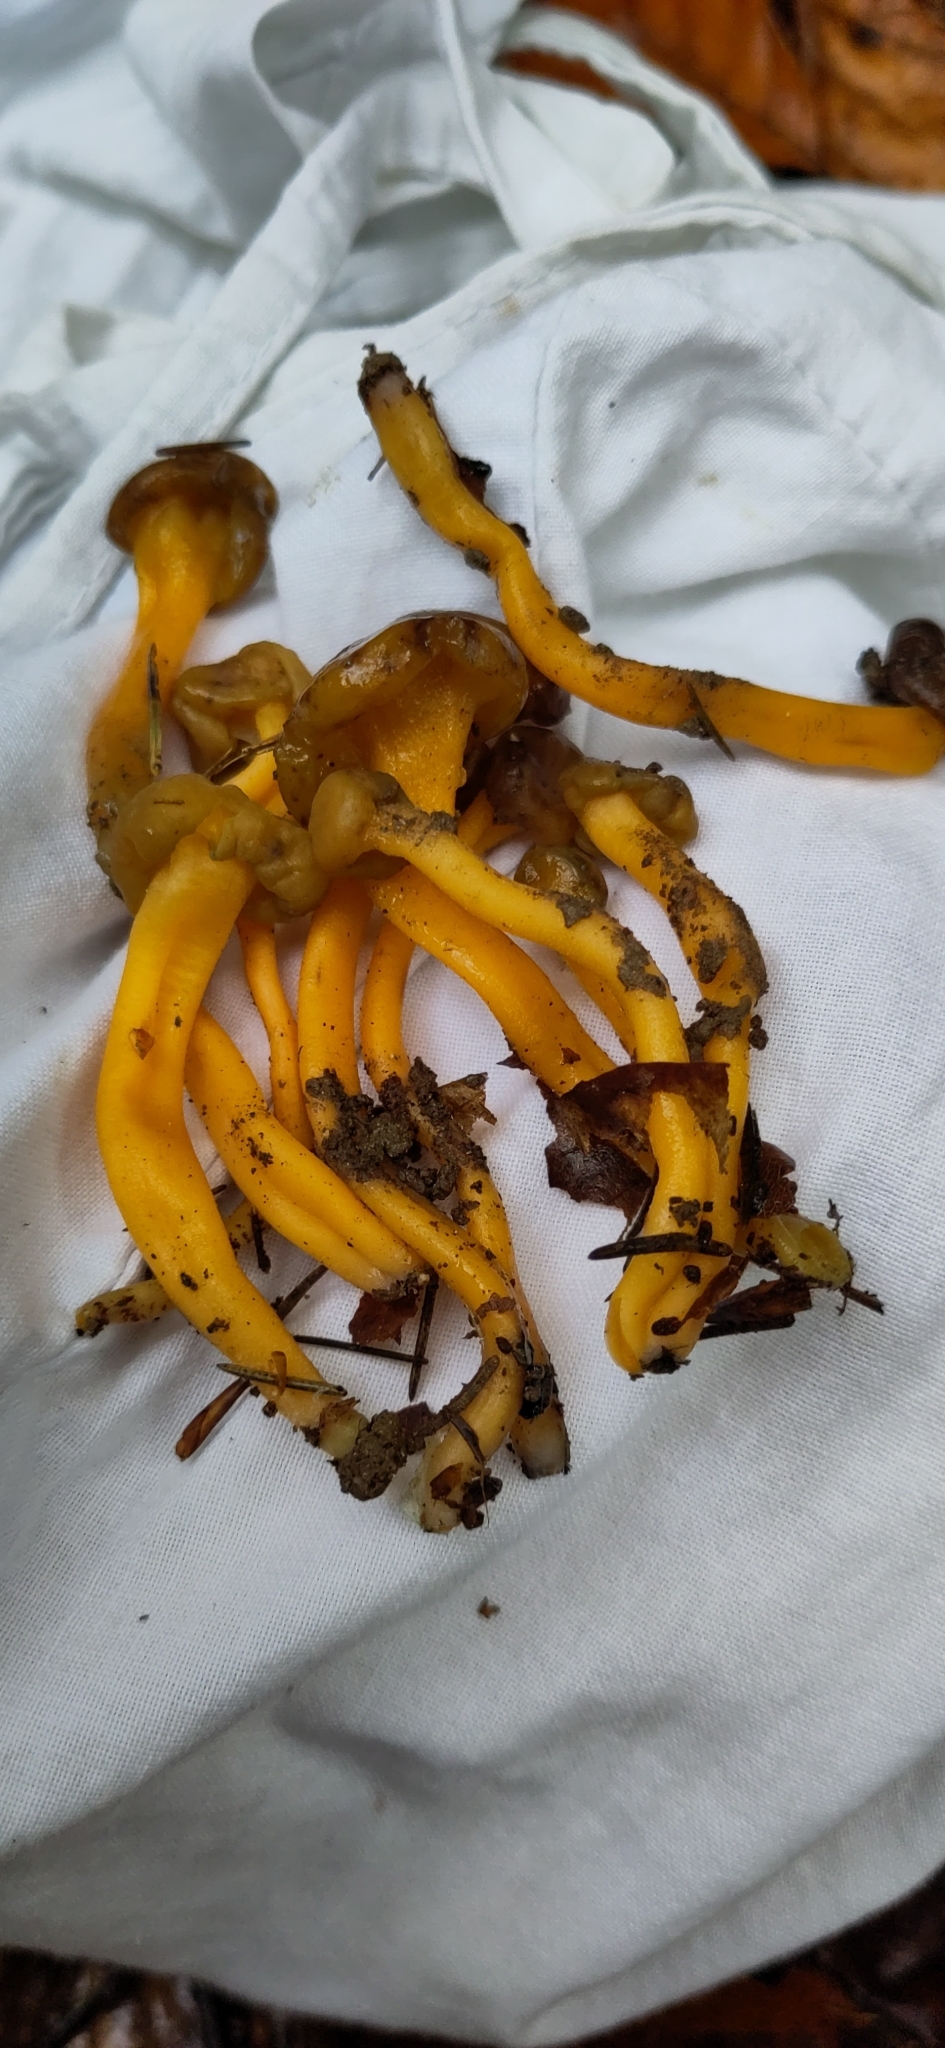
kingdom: Fungi
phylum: Ascomycota
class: Leotiomycetes
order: Leotiales
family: Leotiaceae
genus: Leotia
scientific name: Leotia lubrica
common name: Jellybaby
